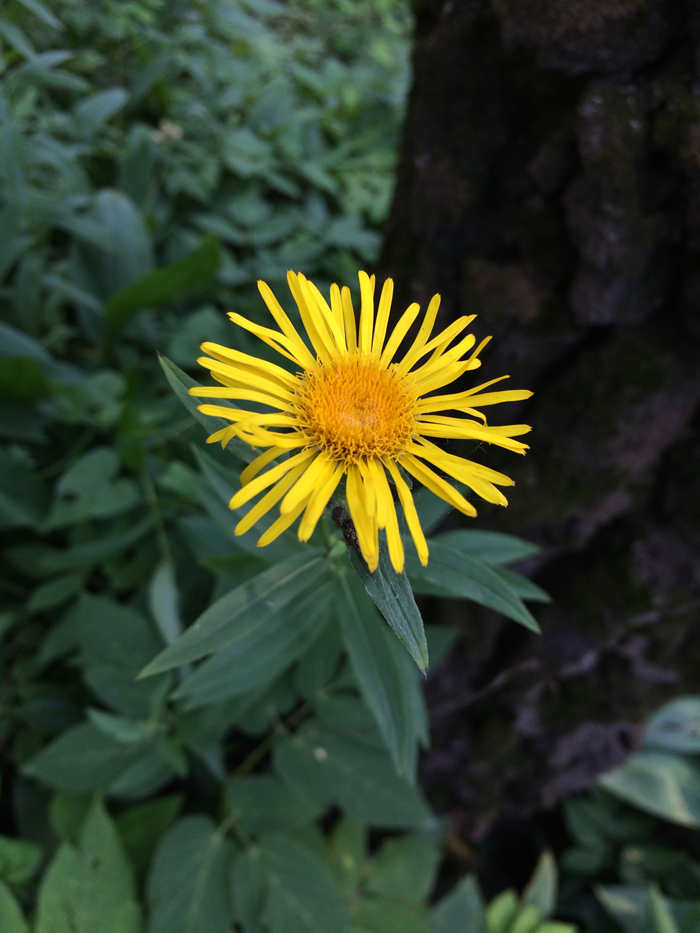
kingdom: Plantae
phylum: Tracheophyta
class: Magnoliopsida
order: Asterales
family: Asteraceae
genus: Pentanema
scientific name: Pentanema salicinum
